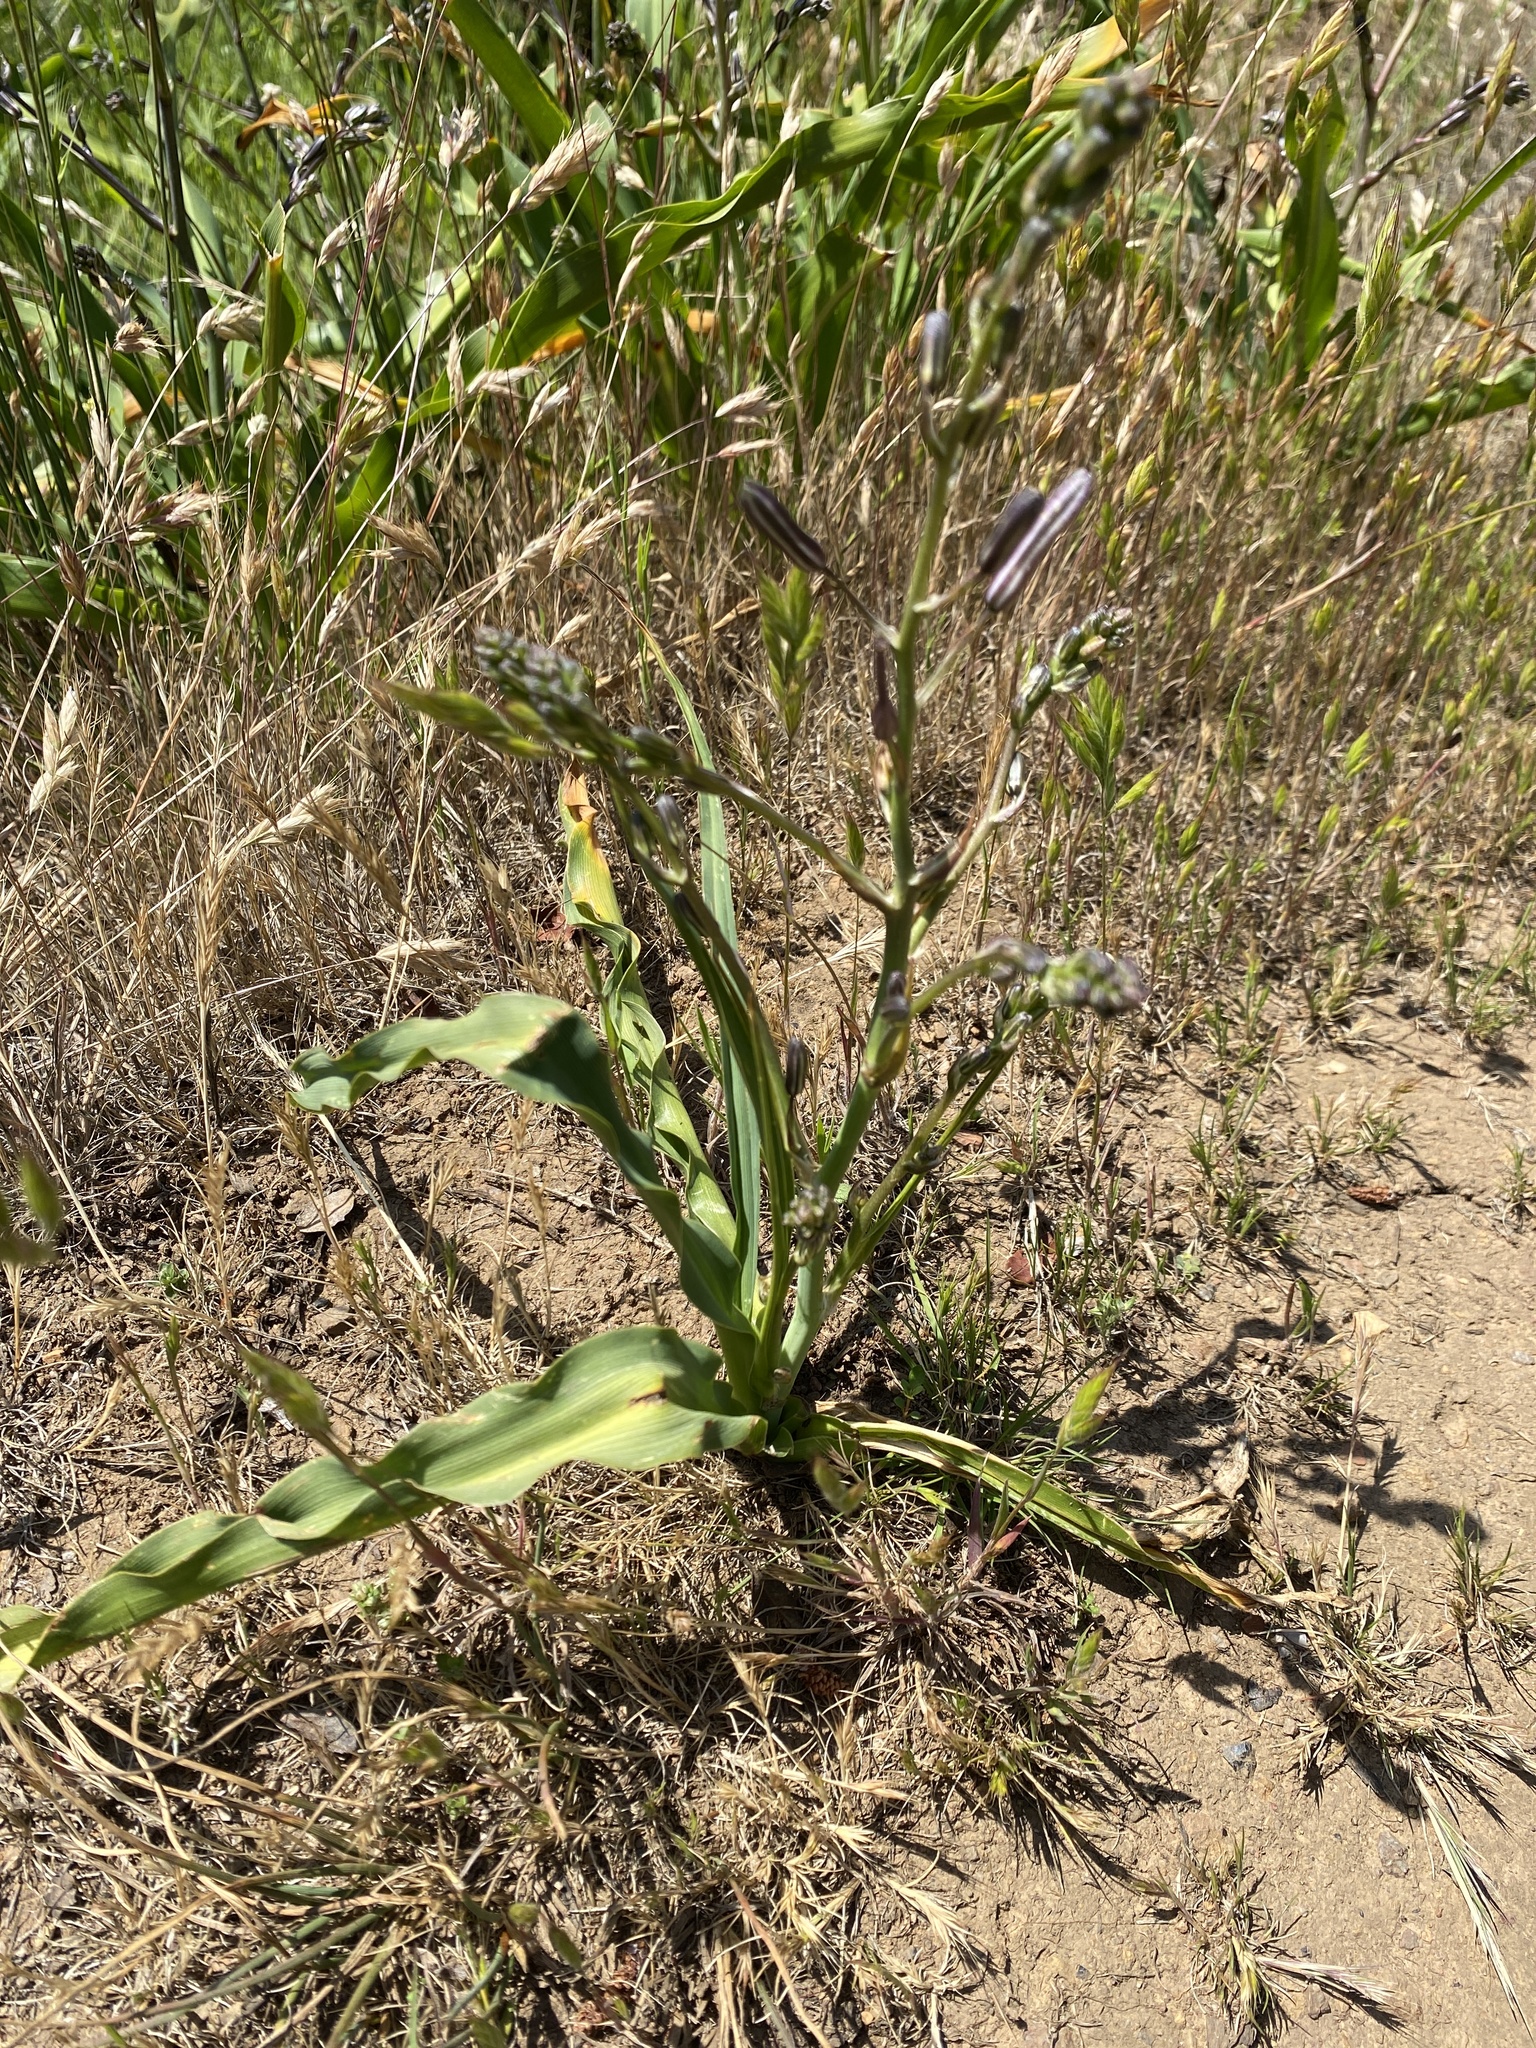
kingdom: Plantae
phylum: Tracheophyta
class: Liliopsida
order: Asparagales
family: Asparagaceae
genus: Chlorogalum
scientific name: Chlorogalum pomeridianum
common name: Amole
